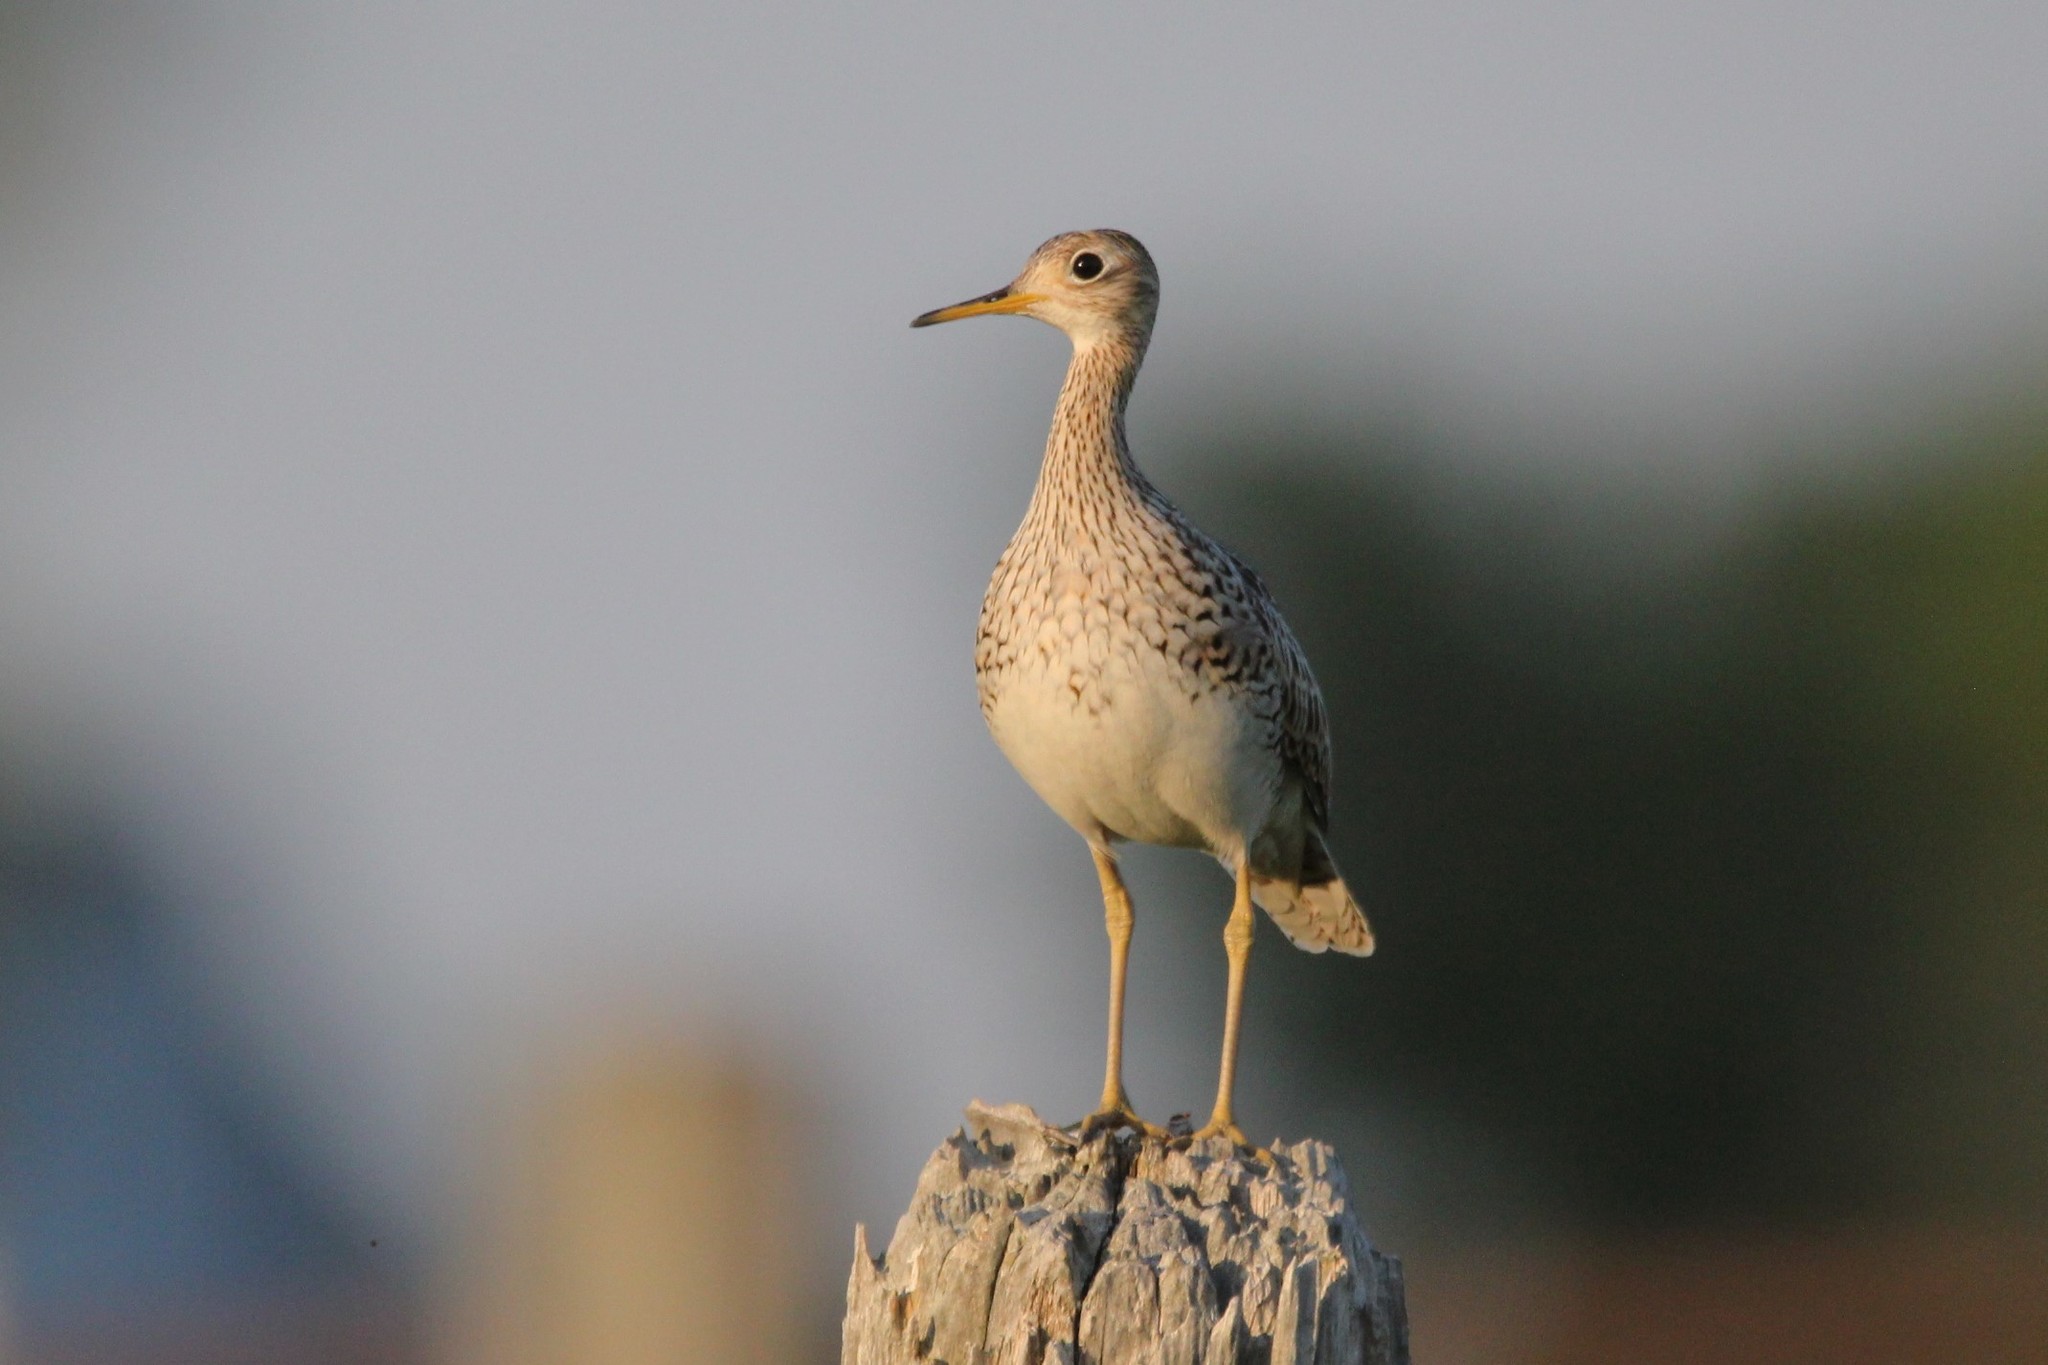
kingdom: Animalia
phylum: Chordata
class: Aves
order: Charadriiformes
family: Scolopacidae
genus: Bartramia
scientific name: Bartramia longicauda
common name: Upland sandpiper
